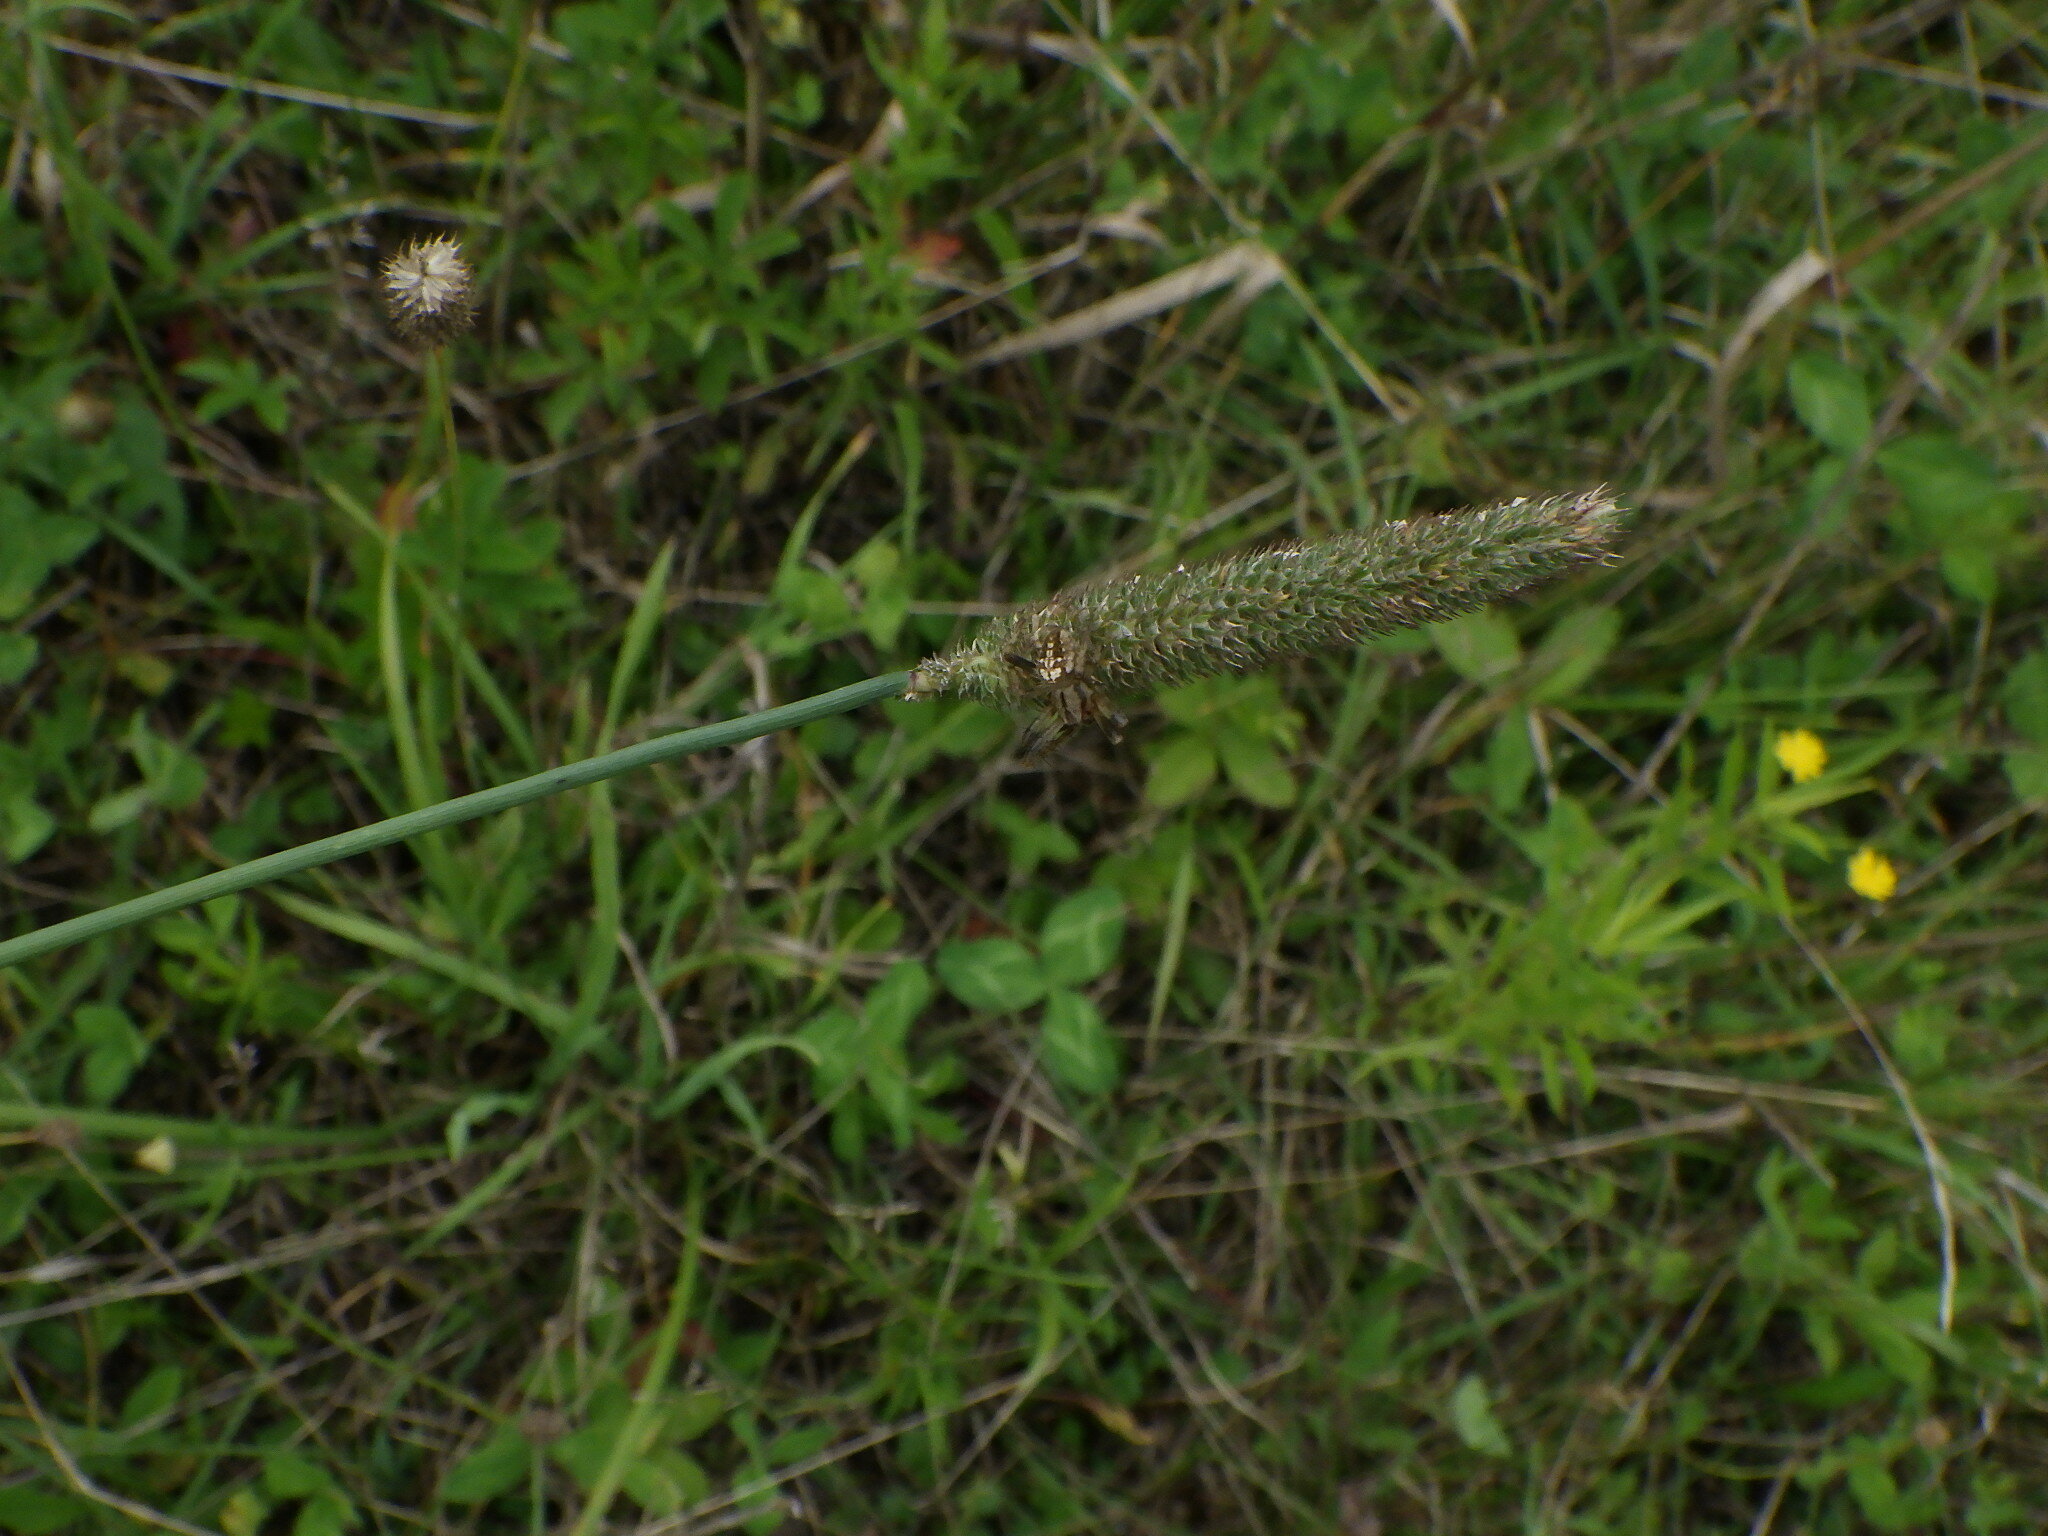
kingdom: Plantae
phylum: Tracheophyta
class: Liliopsida
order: Poales
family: Poaceae
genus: Phleum
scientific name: Phleum pratense
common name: Timothy grass
